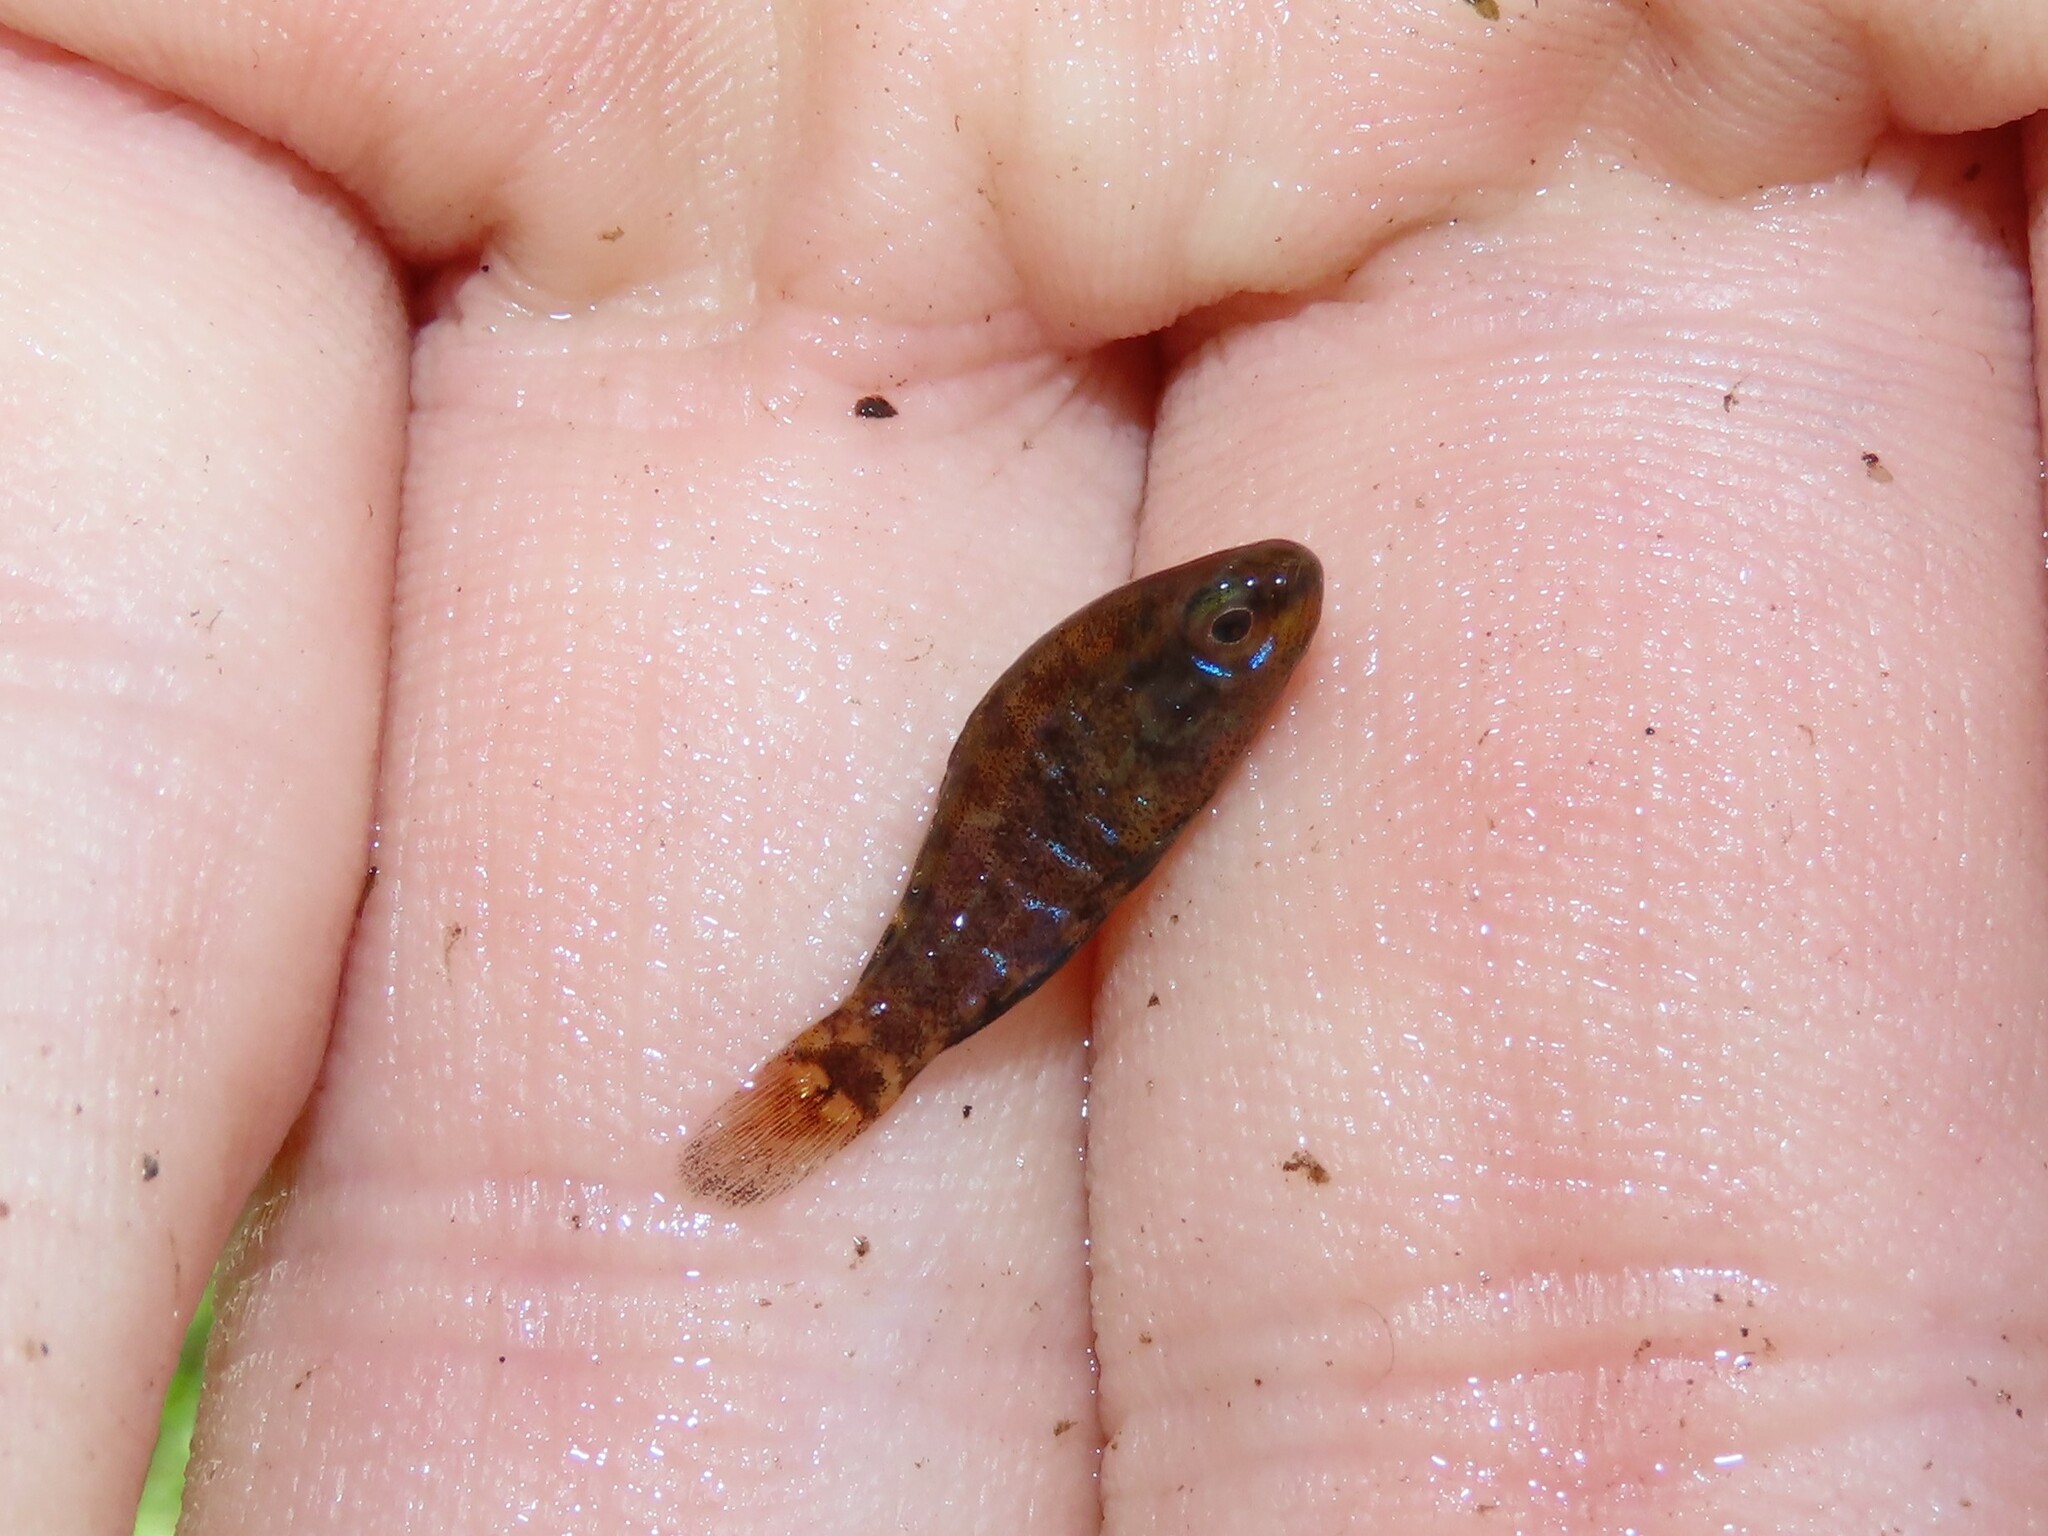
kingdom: Animalia
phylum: Chordata
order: Perciformes
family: Elassomatidae
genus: Elassoma
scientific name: Elassoma okefenokee
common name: Okefenokee pygmy sunfish
